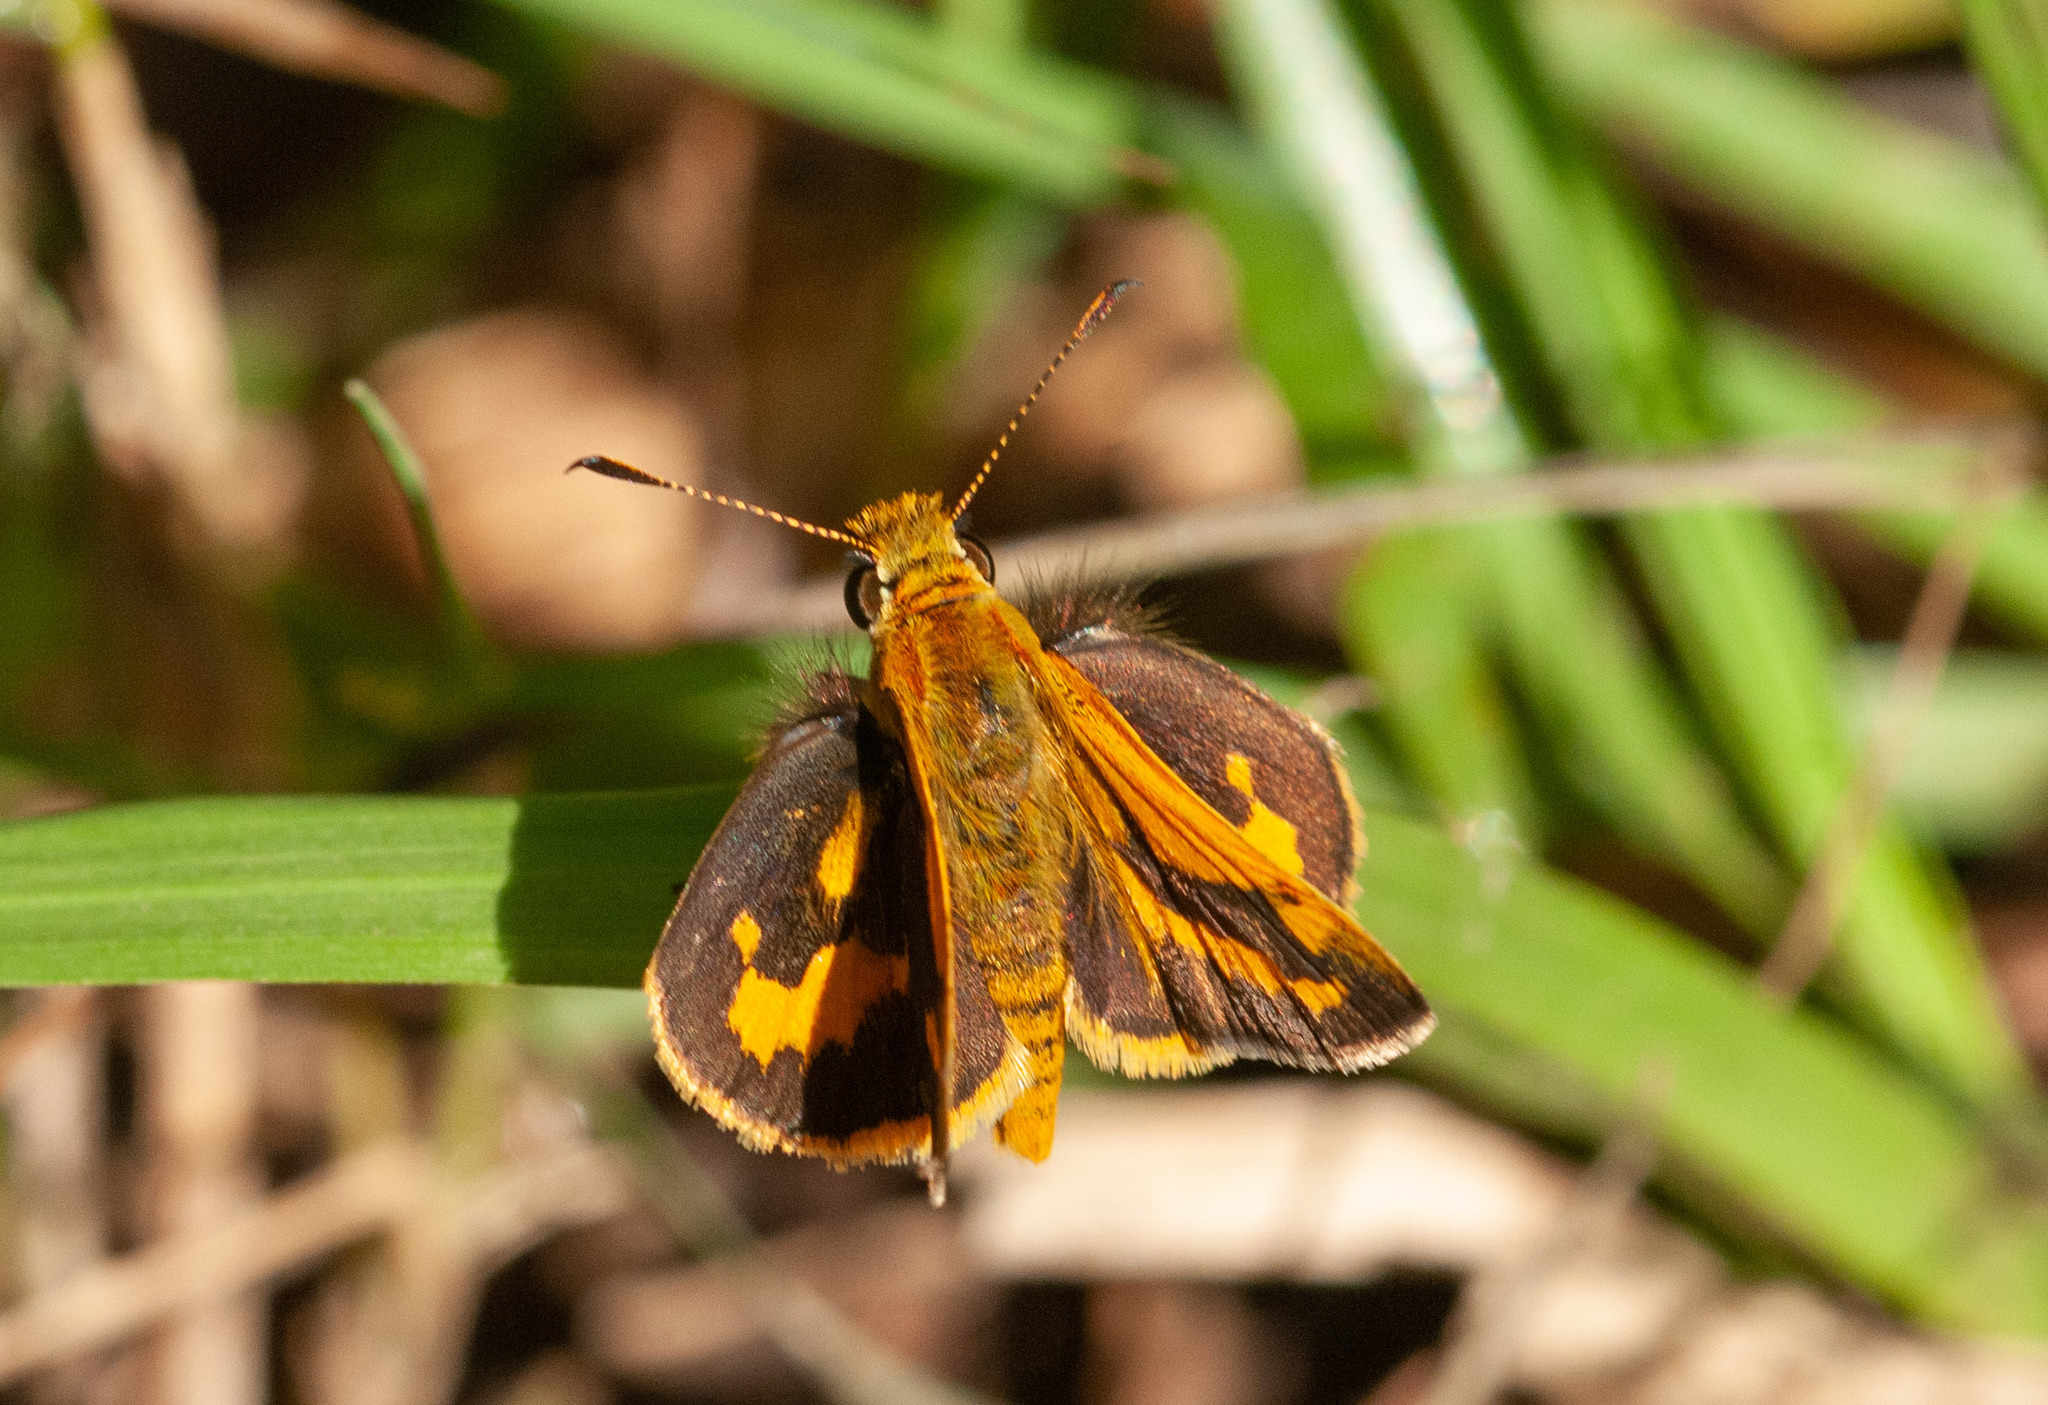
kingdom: Animalia
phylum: Arthropoda
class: Insecta
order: Lepidoptera
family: Hesperiidae
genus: Ocybadistes
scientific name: Ocybadistes walkeri
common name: Yellow-banded dart
